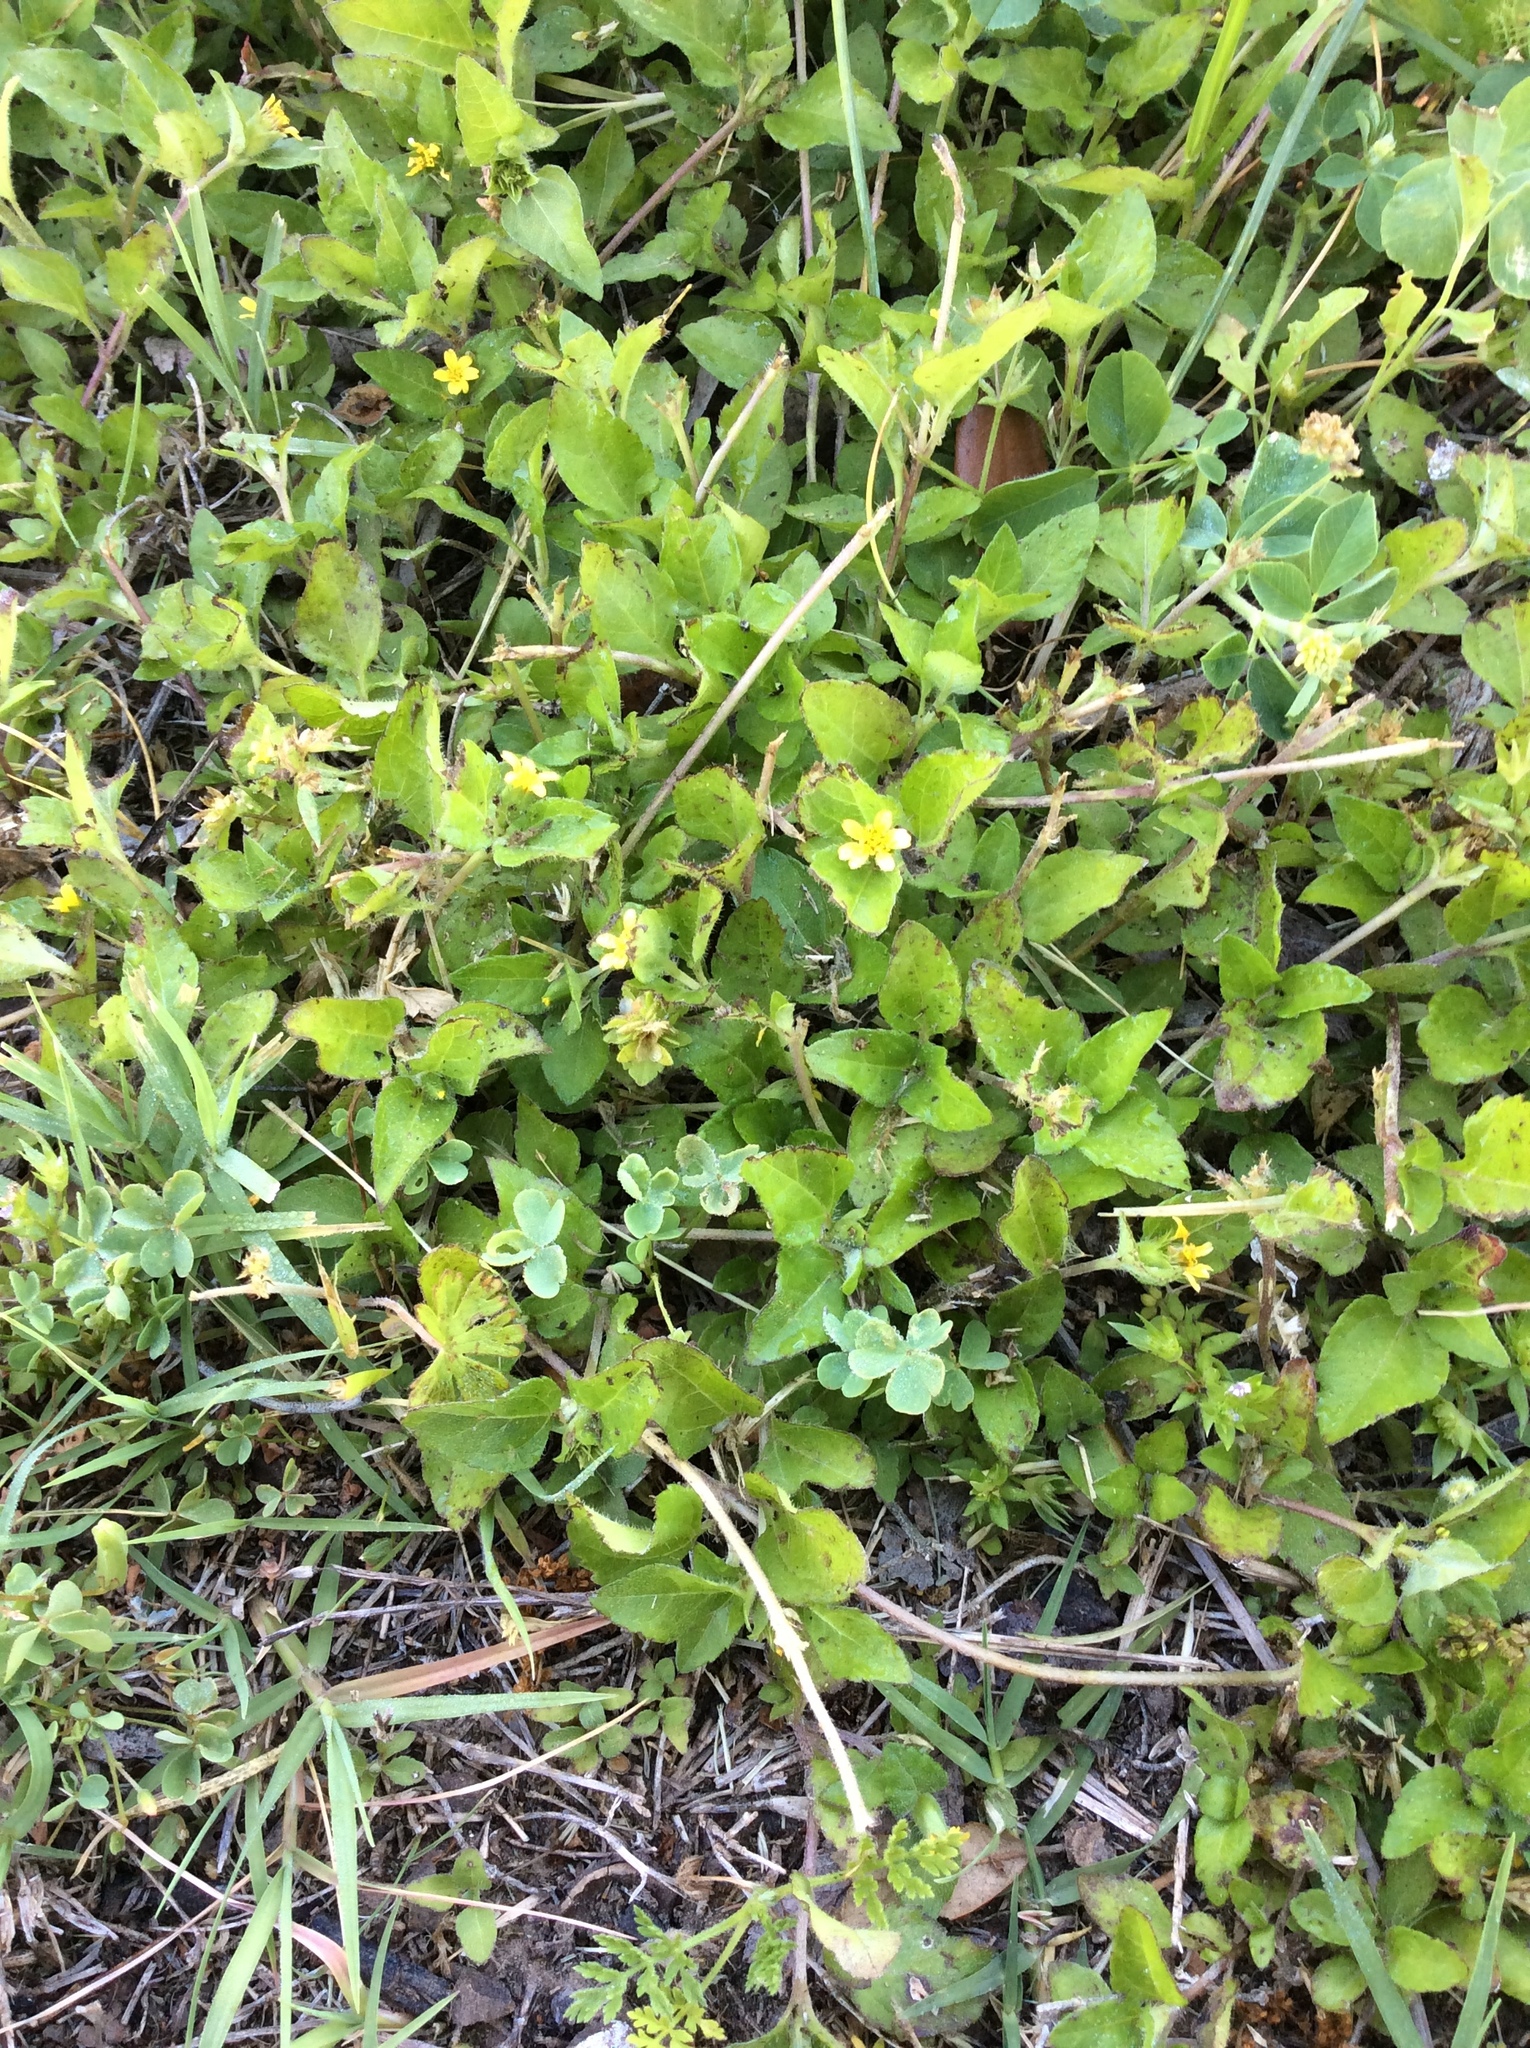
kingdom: Plantae
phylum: Tracheophyta
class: Magnoliopsida
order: Asterales
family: Asteraceae
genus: Calyptocarpus
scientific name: Calyptocarpus vialis
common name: Straggler daisy
